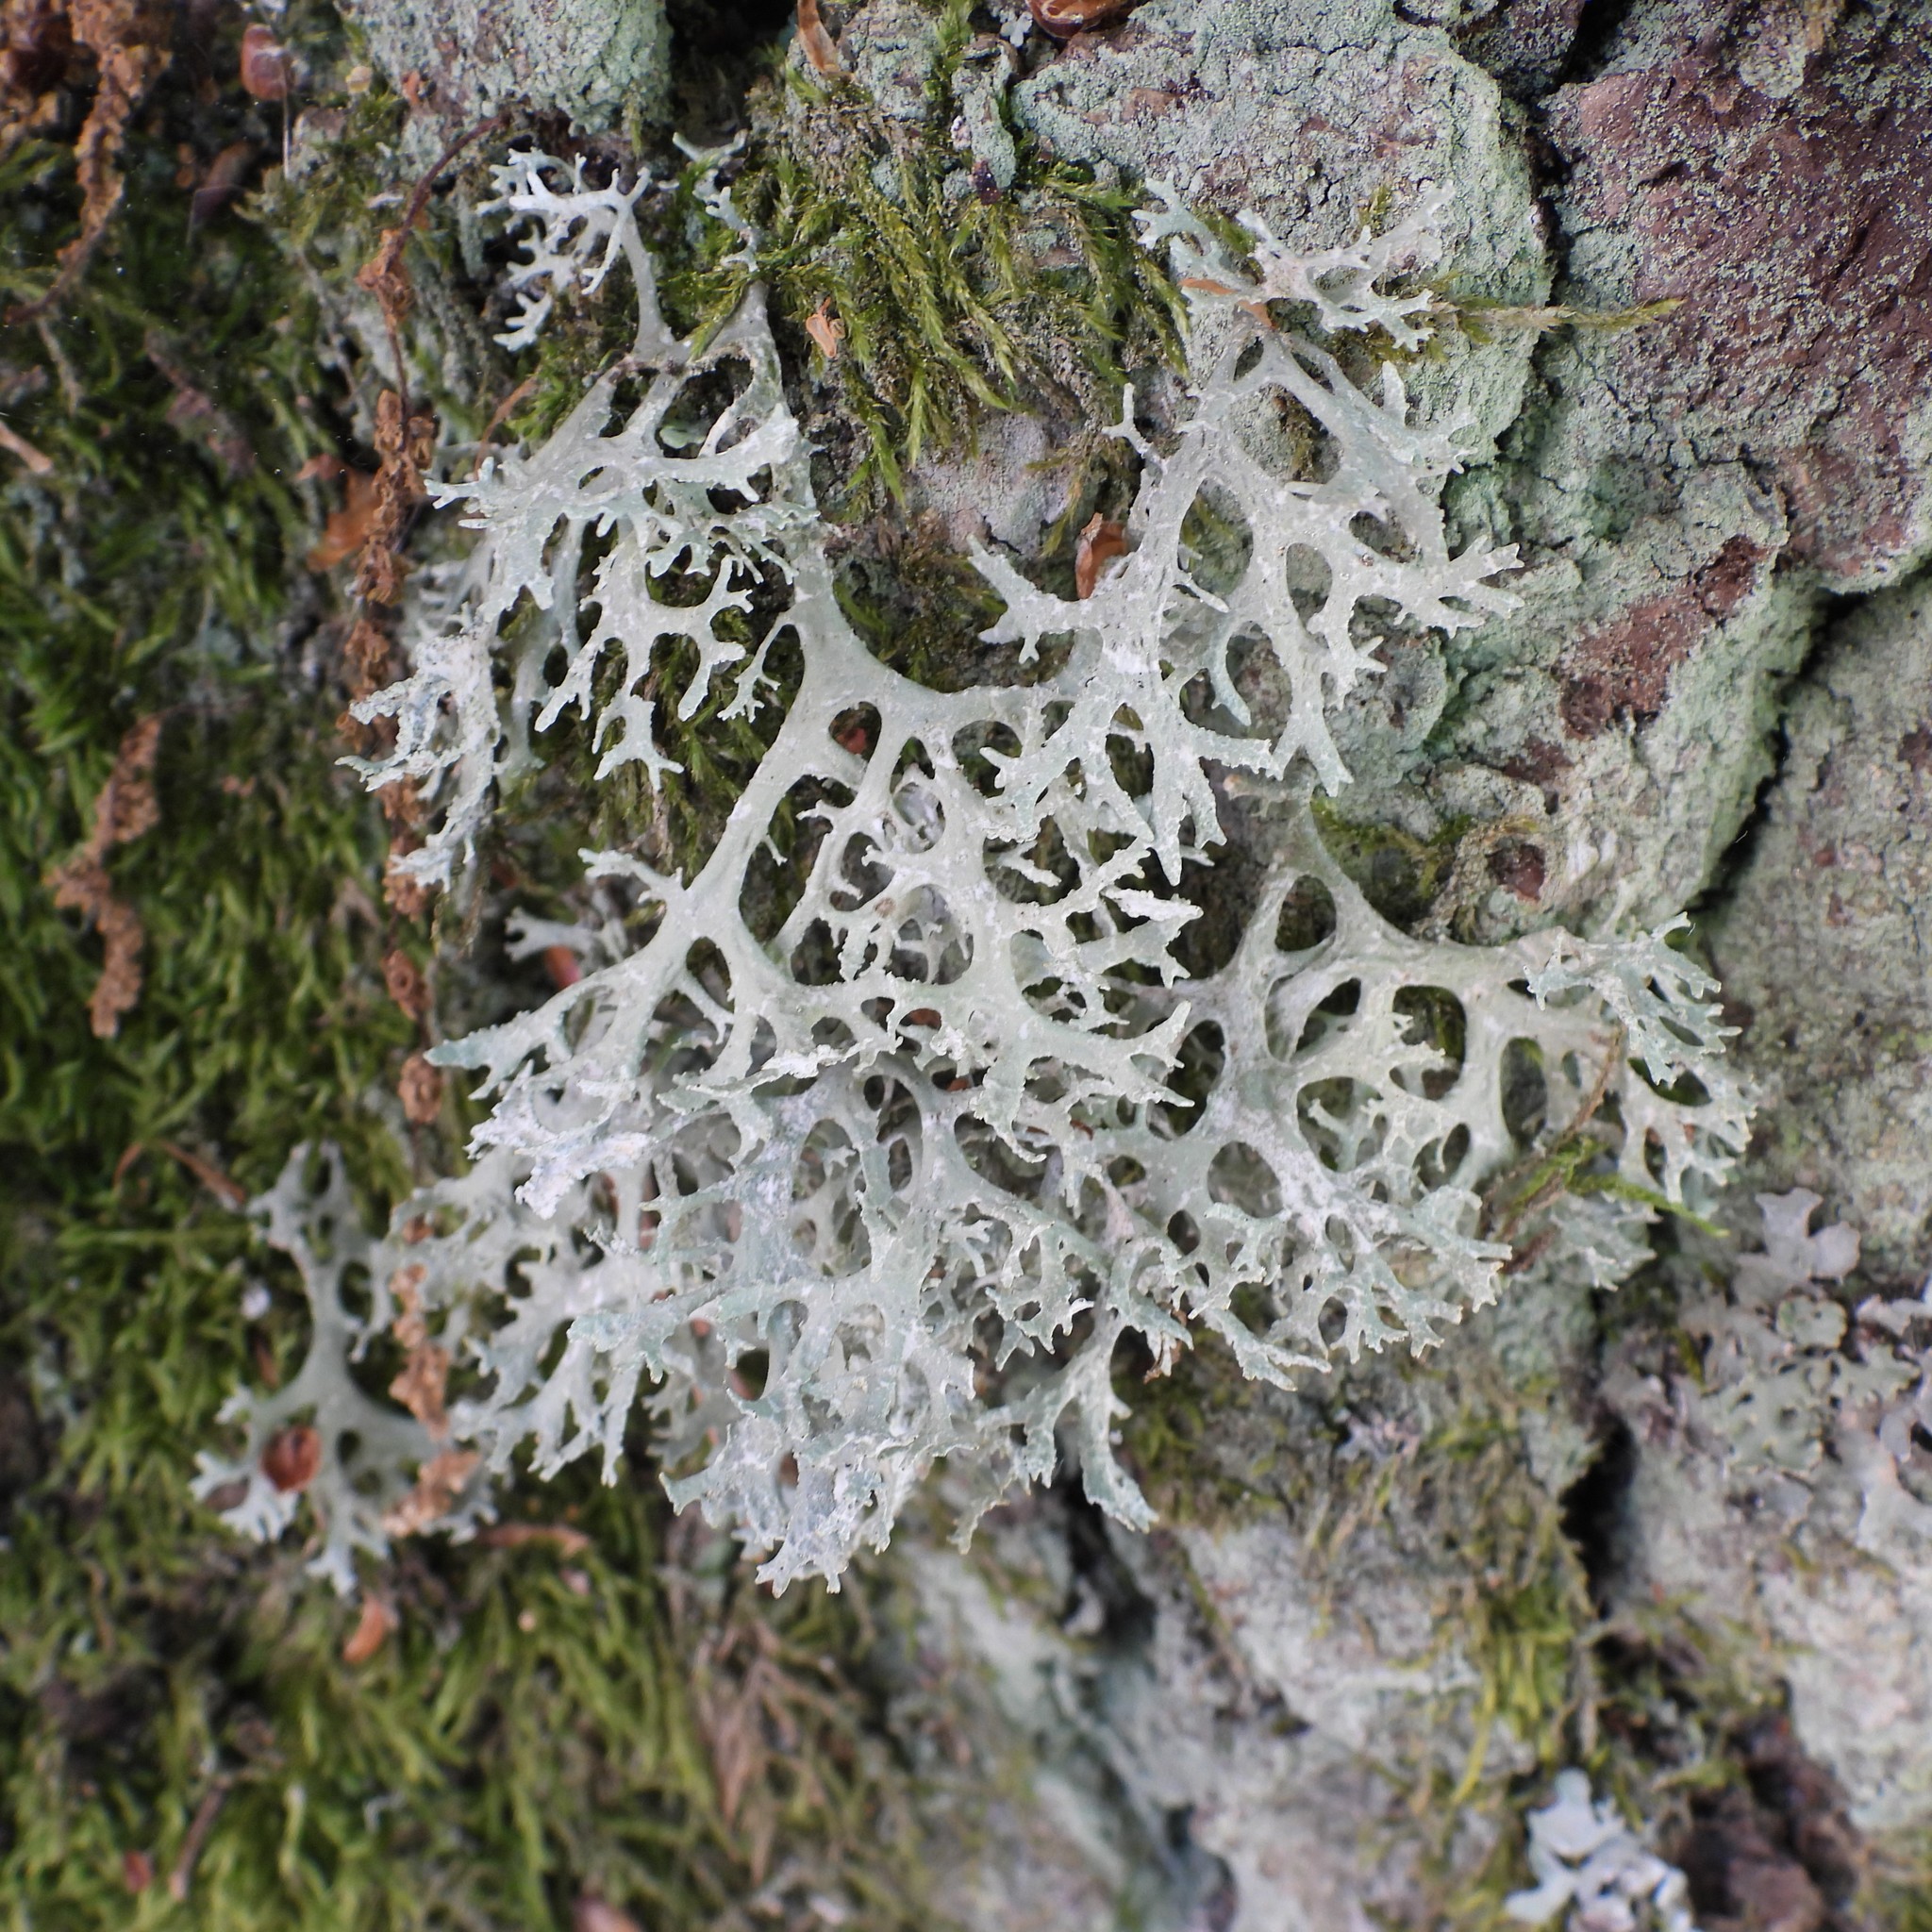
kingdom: Fungi
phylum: Ascomycota
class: Lecanoromycetes
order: Lecanorales
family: Parmeliaceae
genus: Evernia
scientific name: Evernia prunastri
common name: Oak moss
